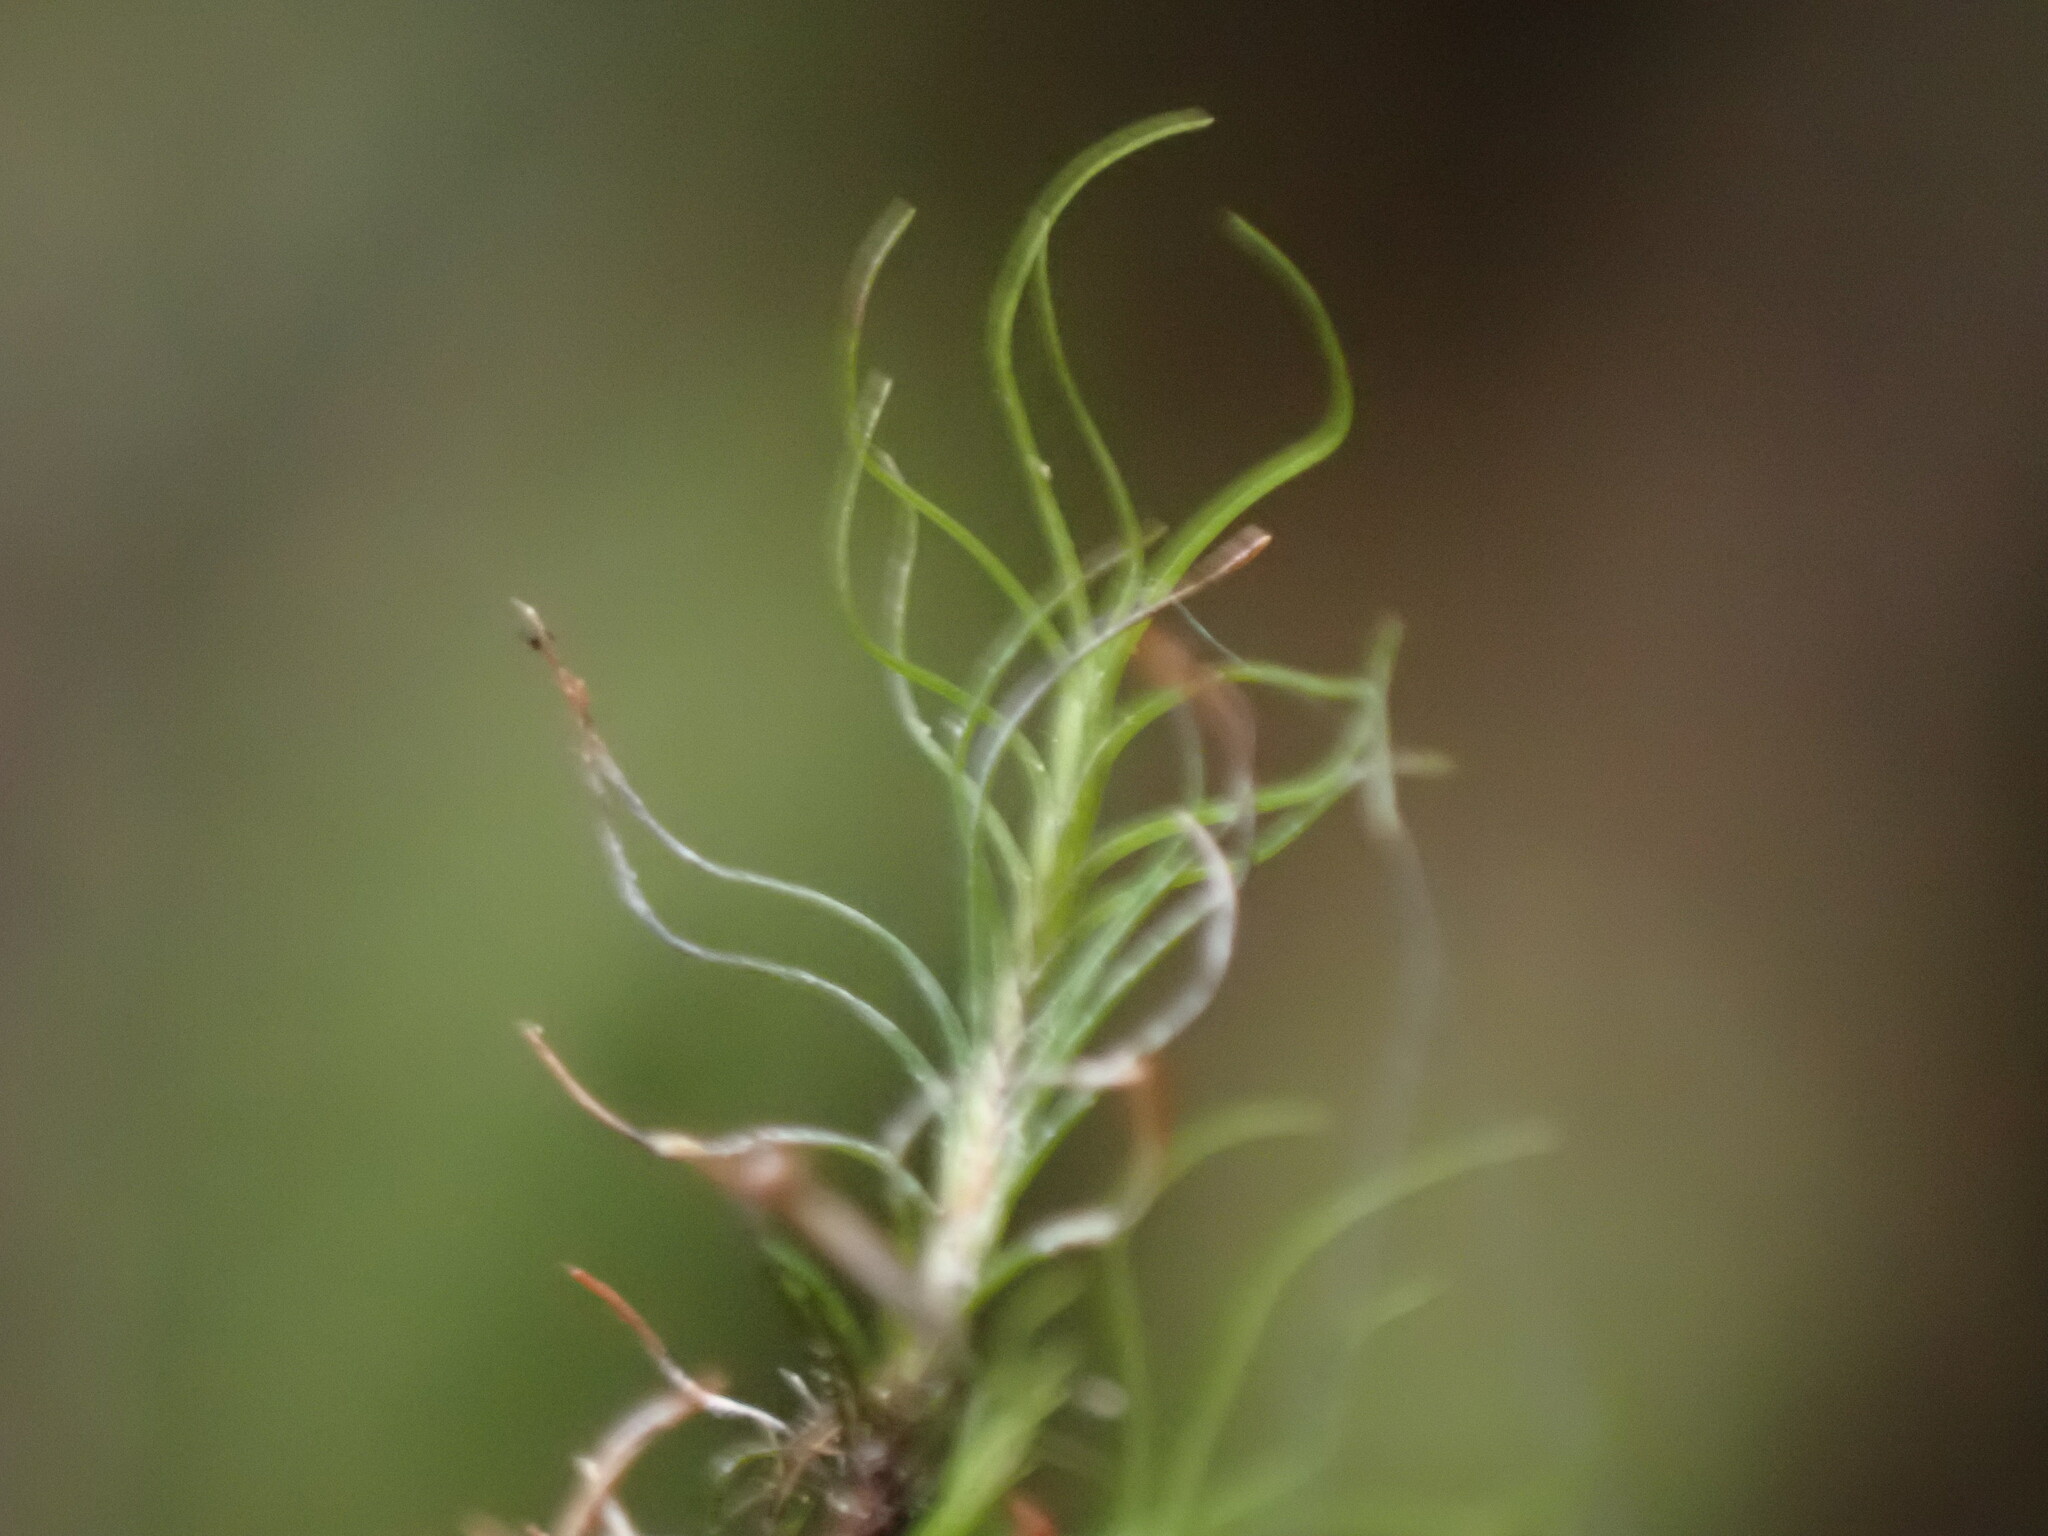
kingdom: Plantae
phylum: Bryophyta
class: Bryopsida
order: Scouleriales
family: Distichiaceae
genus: Distichium
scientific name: Distichium capillaceum
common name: Erect-fruited iris moss
